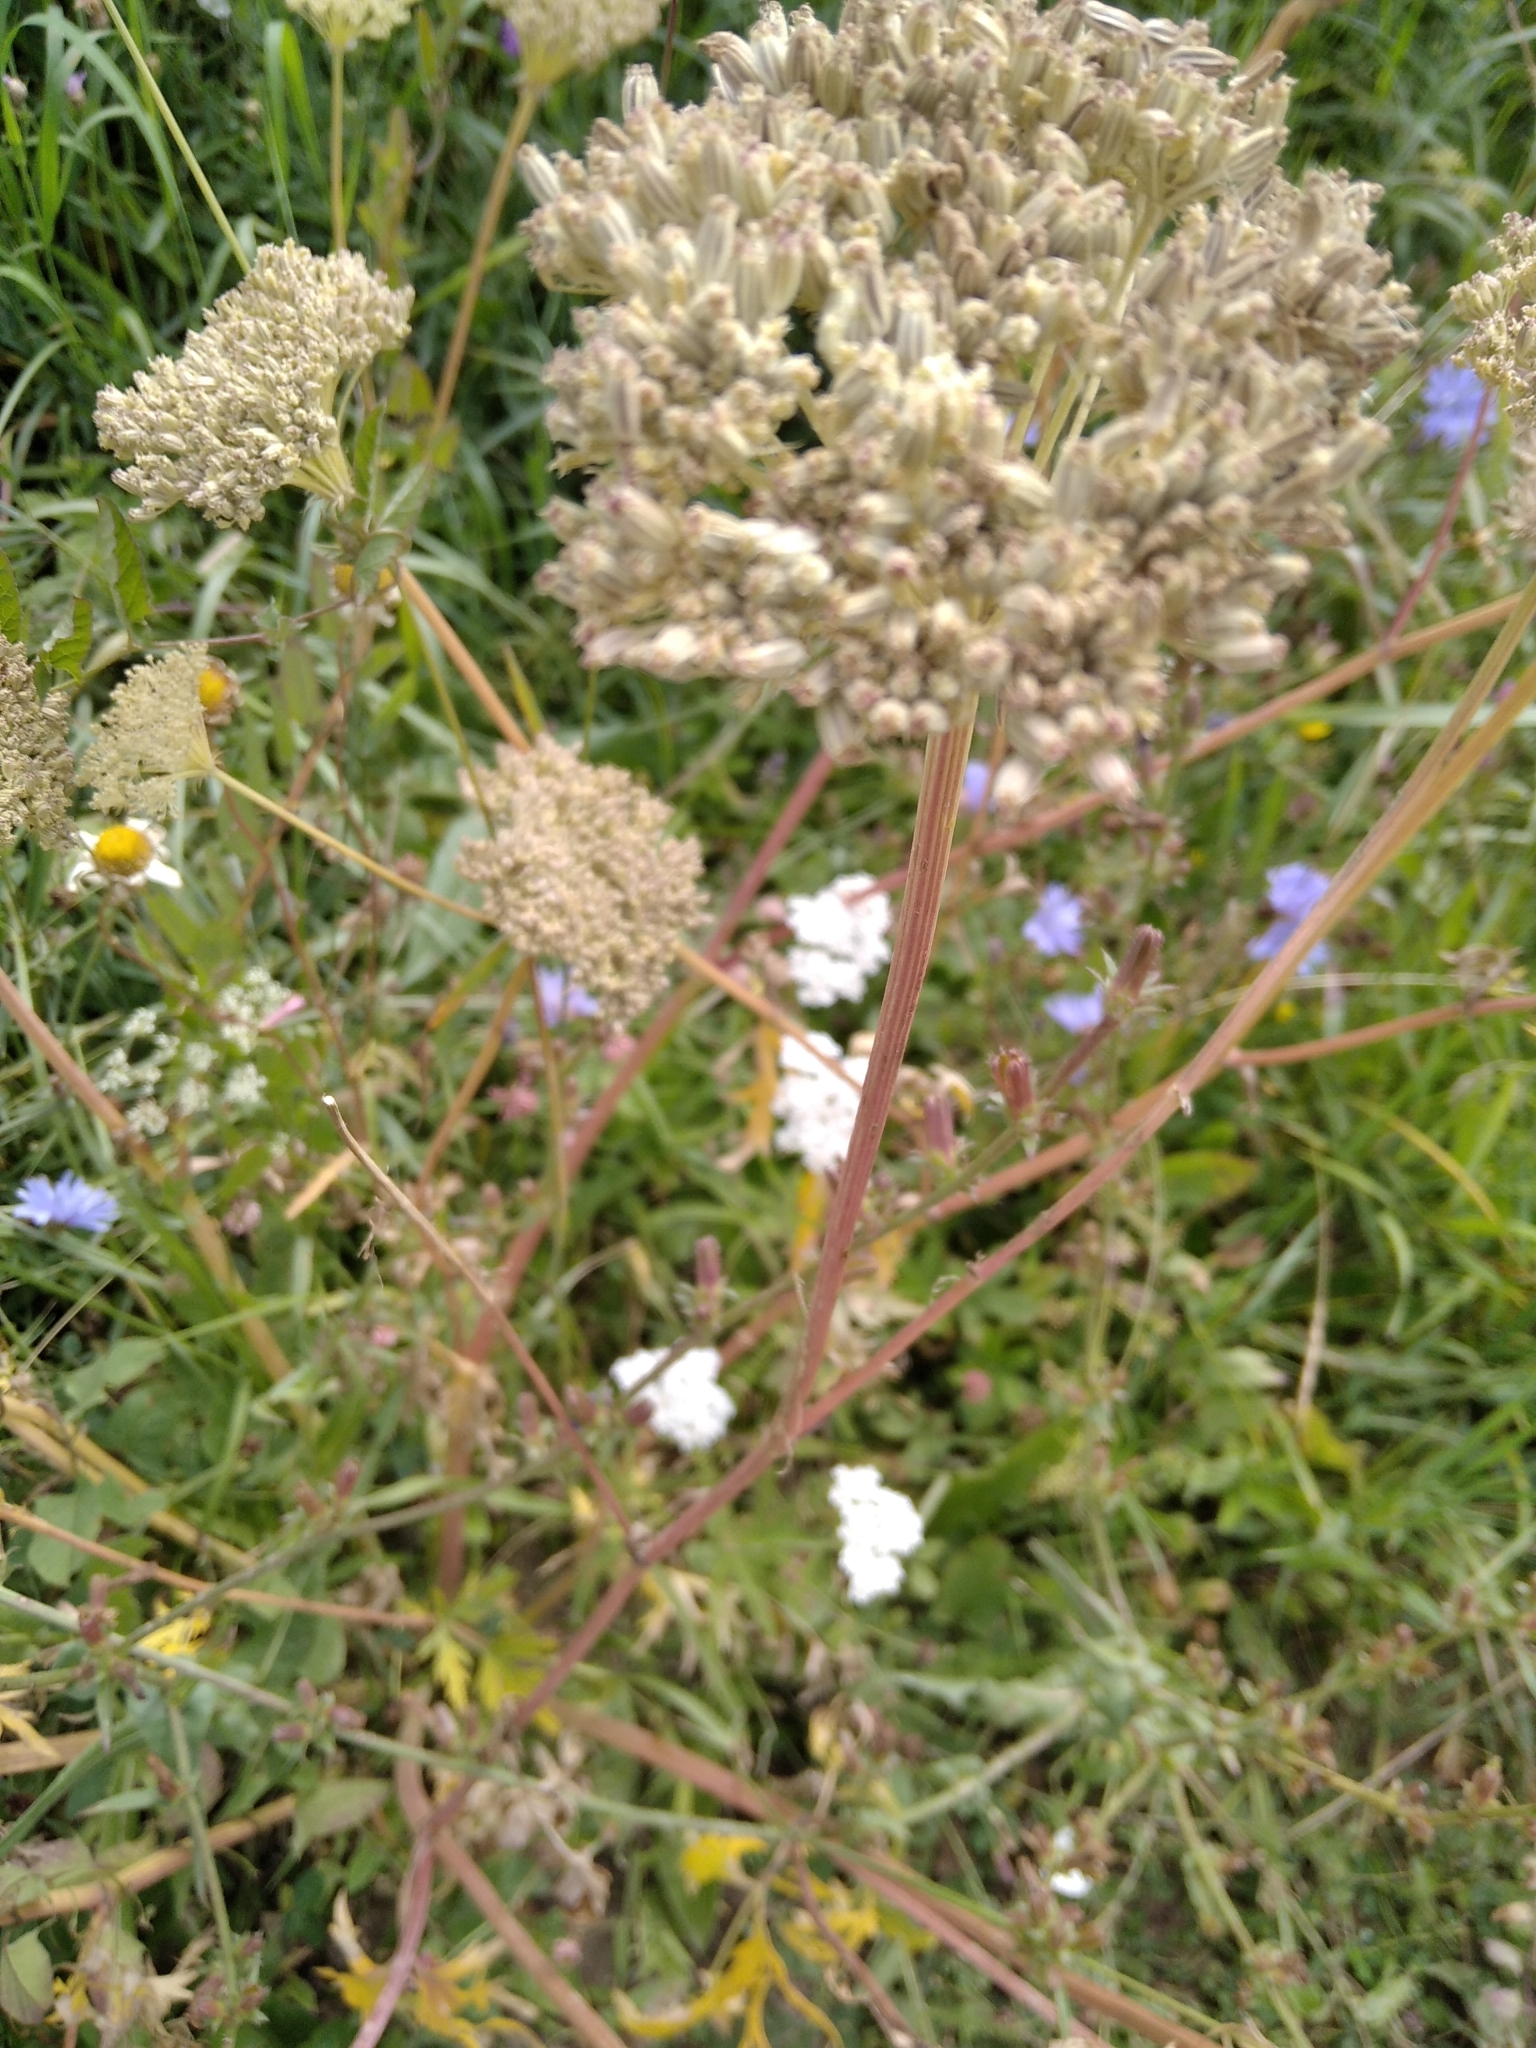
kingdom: Plantae
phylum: Tracheophyta
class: Magnoliopsida
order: Apiales
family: Apiaceae
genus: Seseli
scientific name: Seseli libanotis
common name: Mooncarrot
